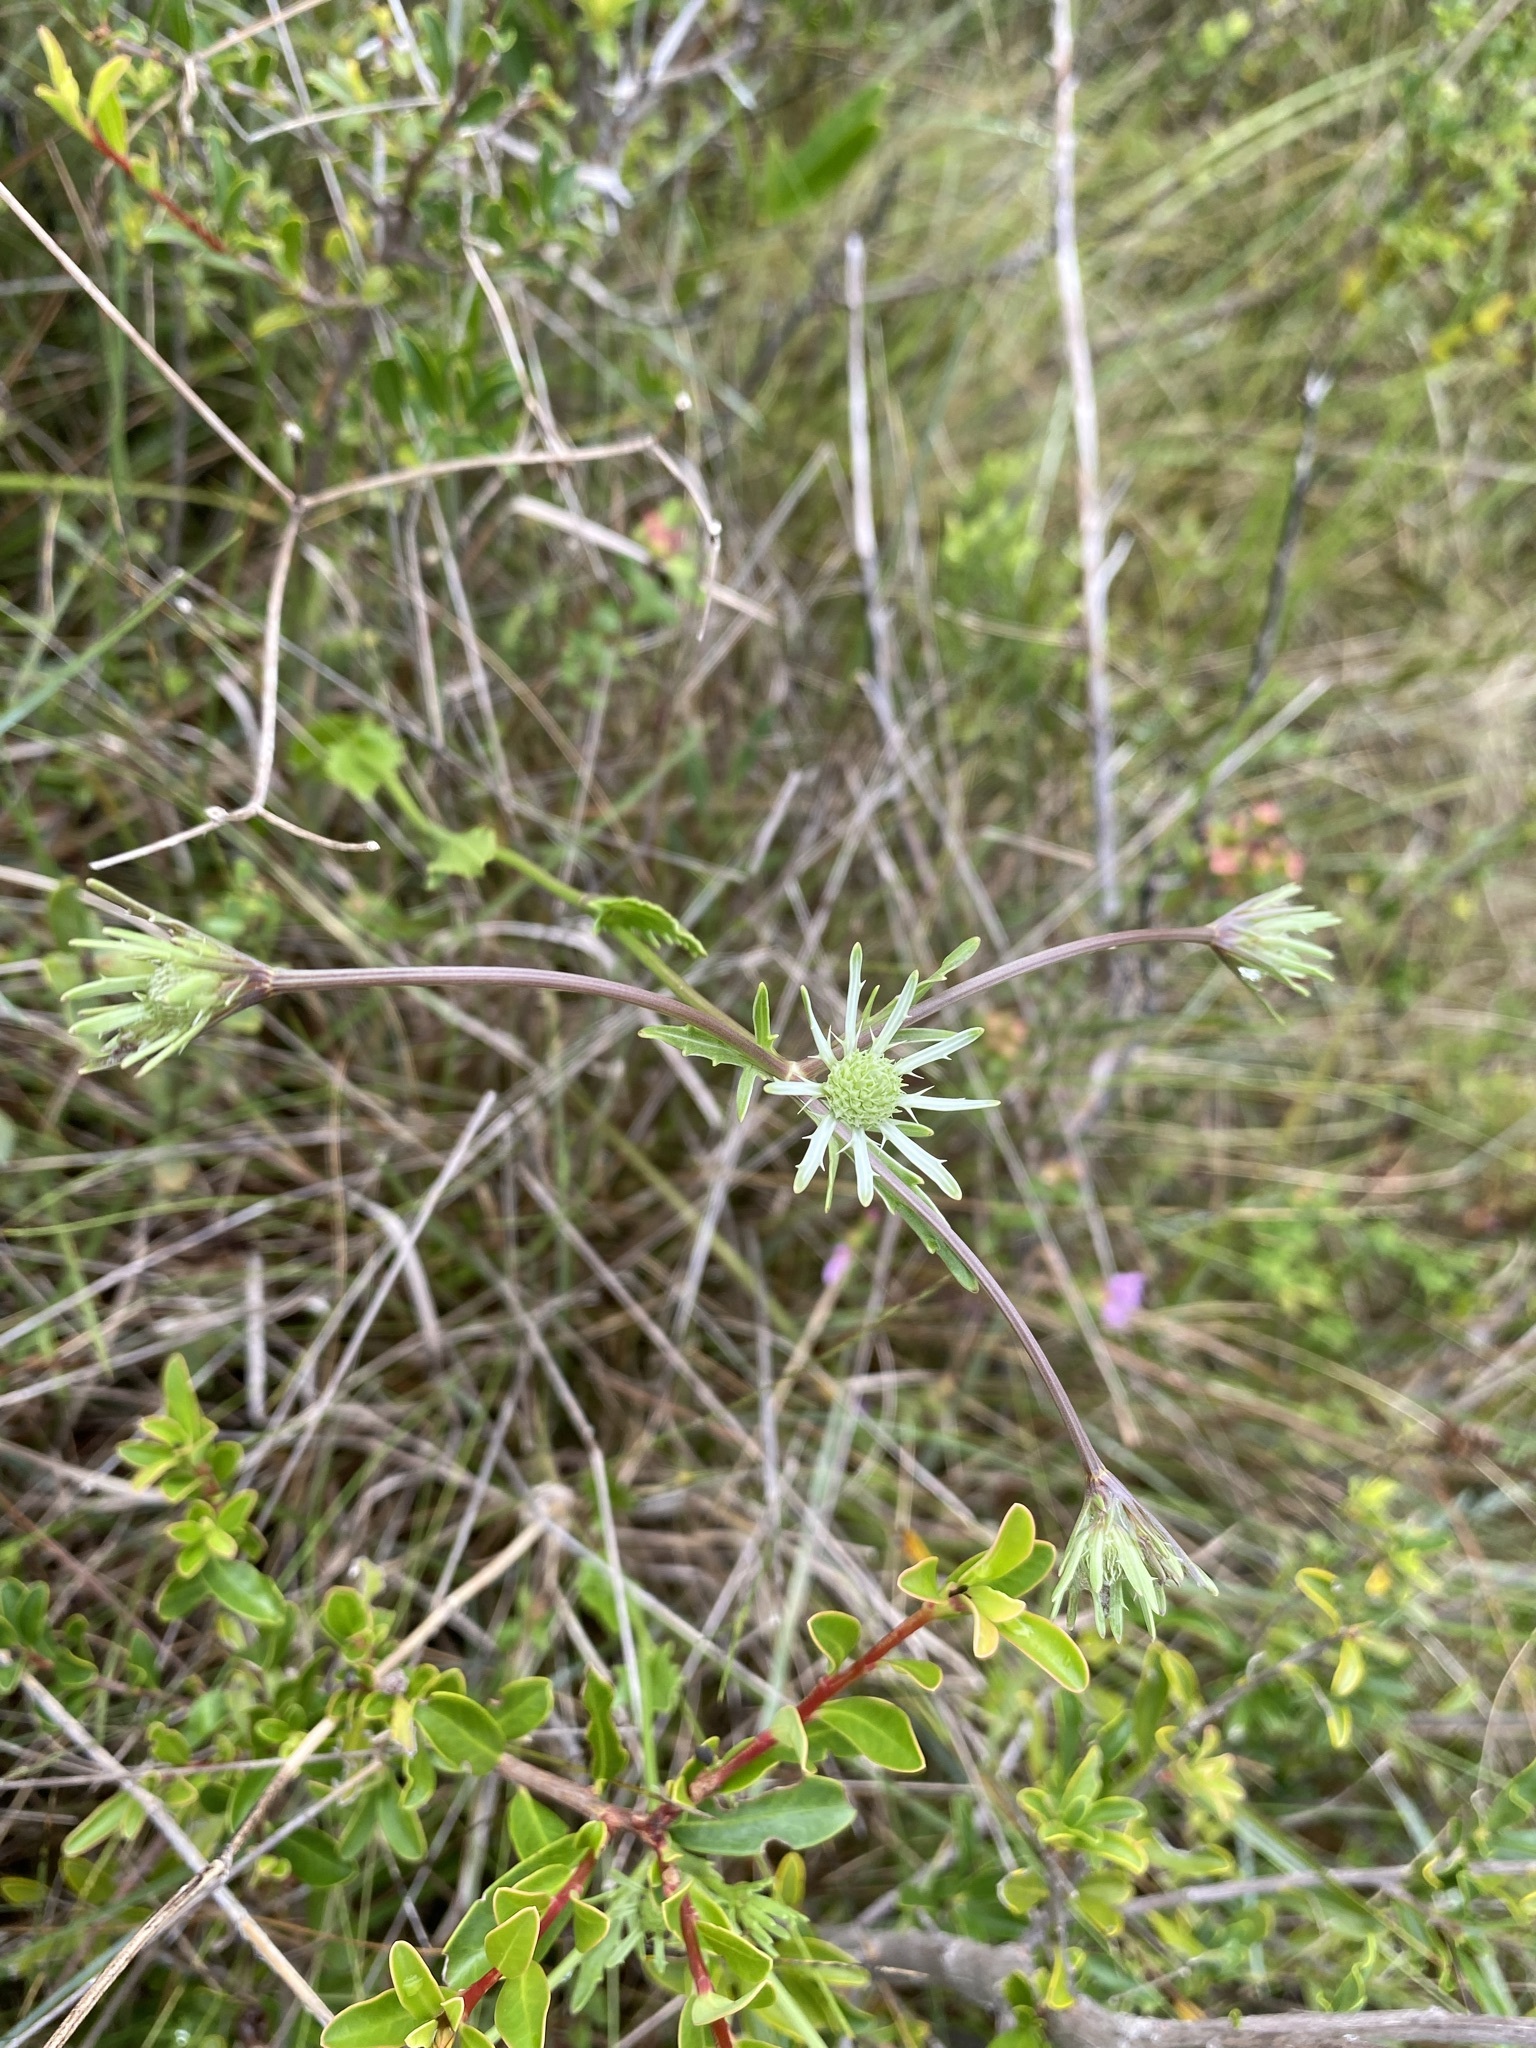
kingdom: Plantae
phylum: Tracheophyta
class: Magnoliopsida
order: Apiales
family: Apiaceae
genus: Eryngium
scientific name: Eryngium integrifolium
